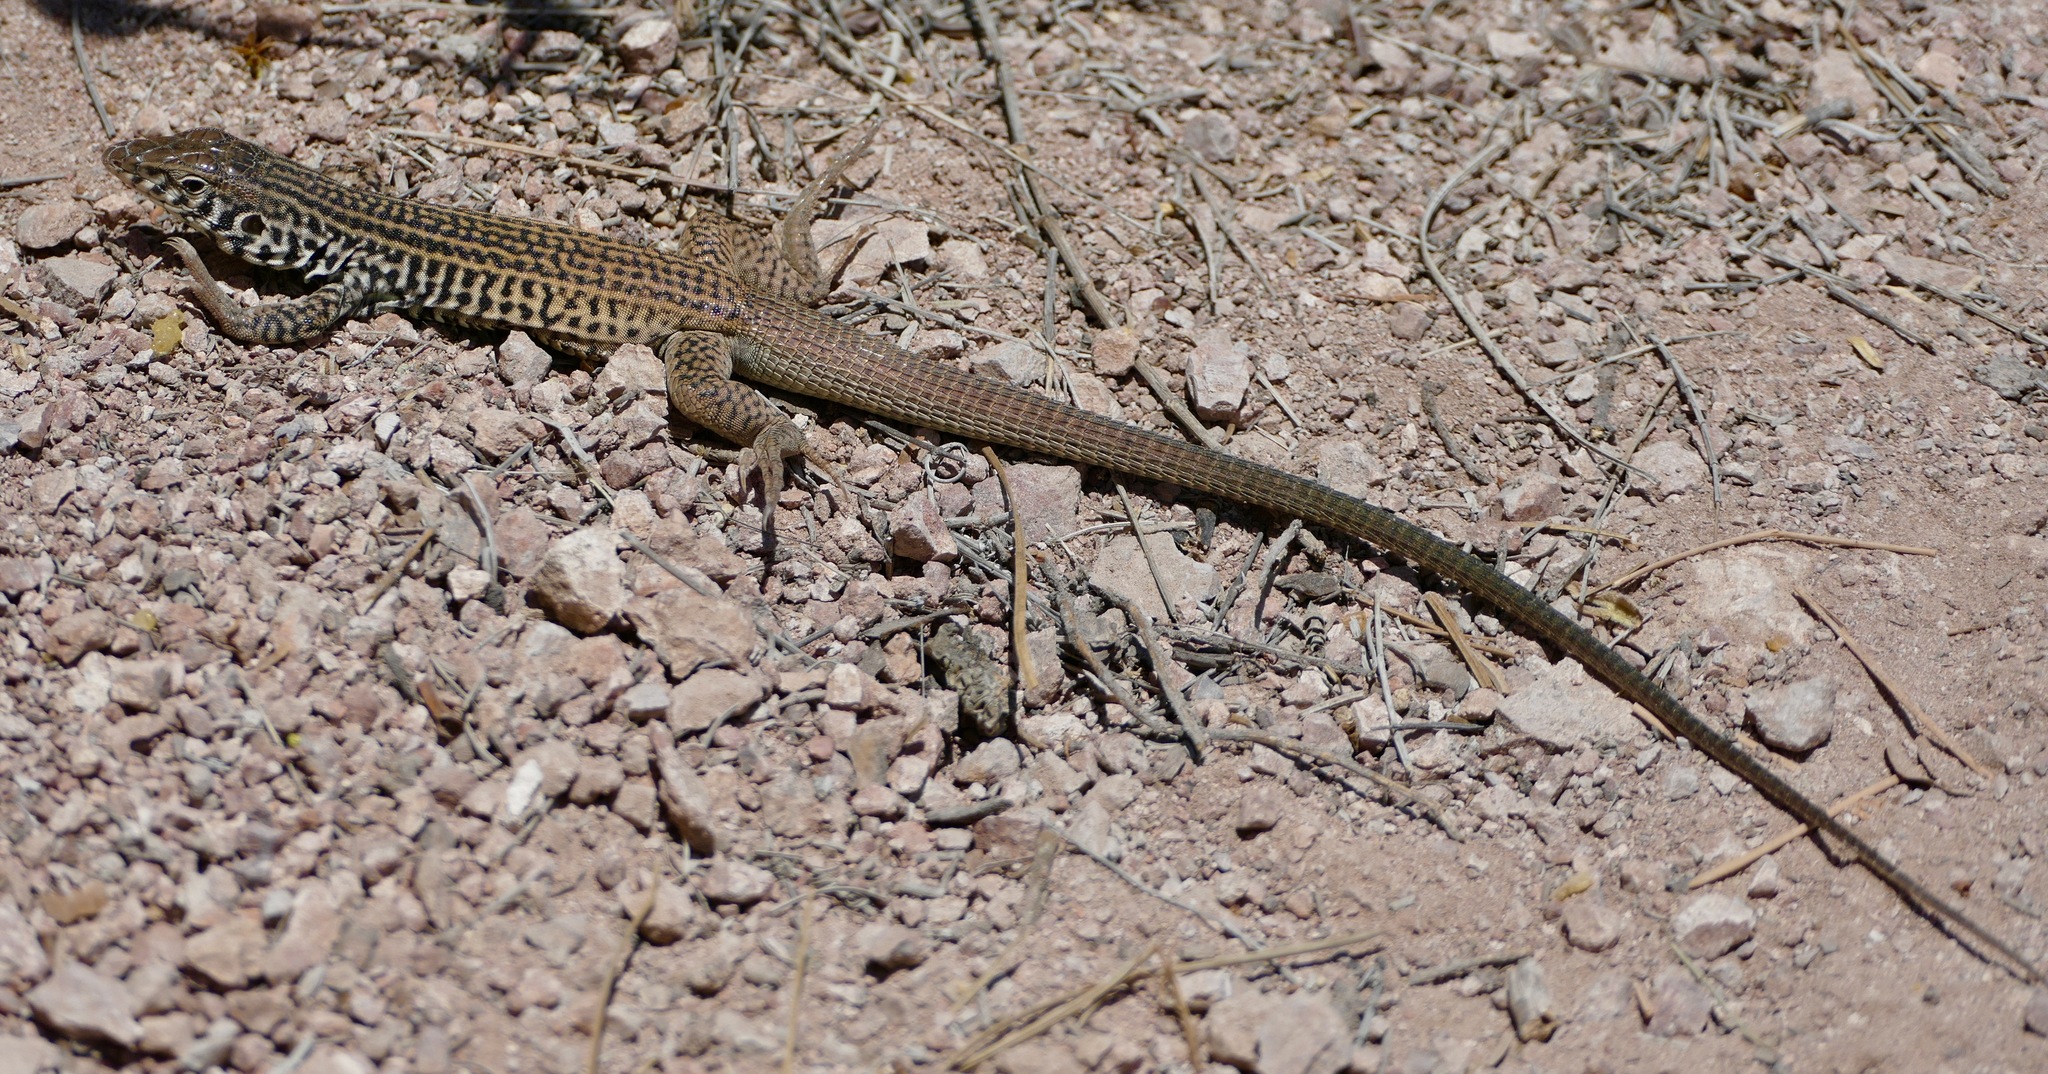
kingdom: Animalia
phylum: Chordata
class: Squamata
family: Teiidae
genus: Aspidoscelis
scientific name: Aspidoscelis tigris
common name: Tiger whiptail
